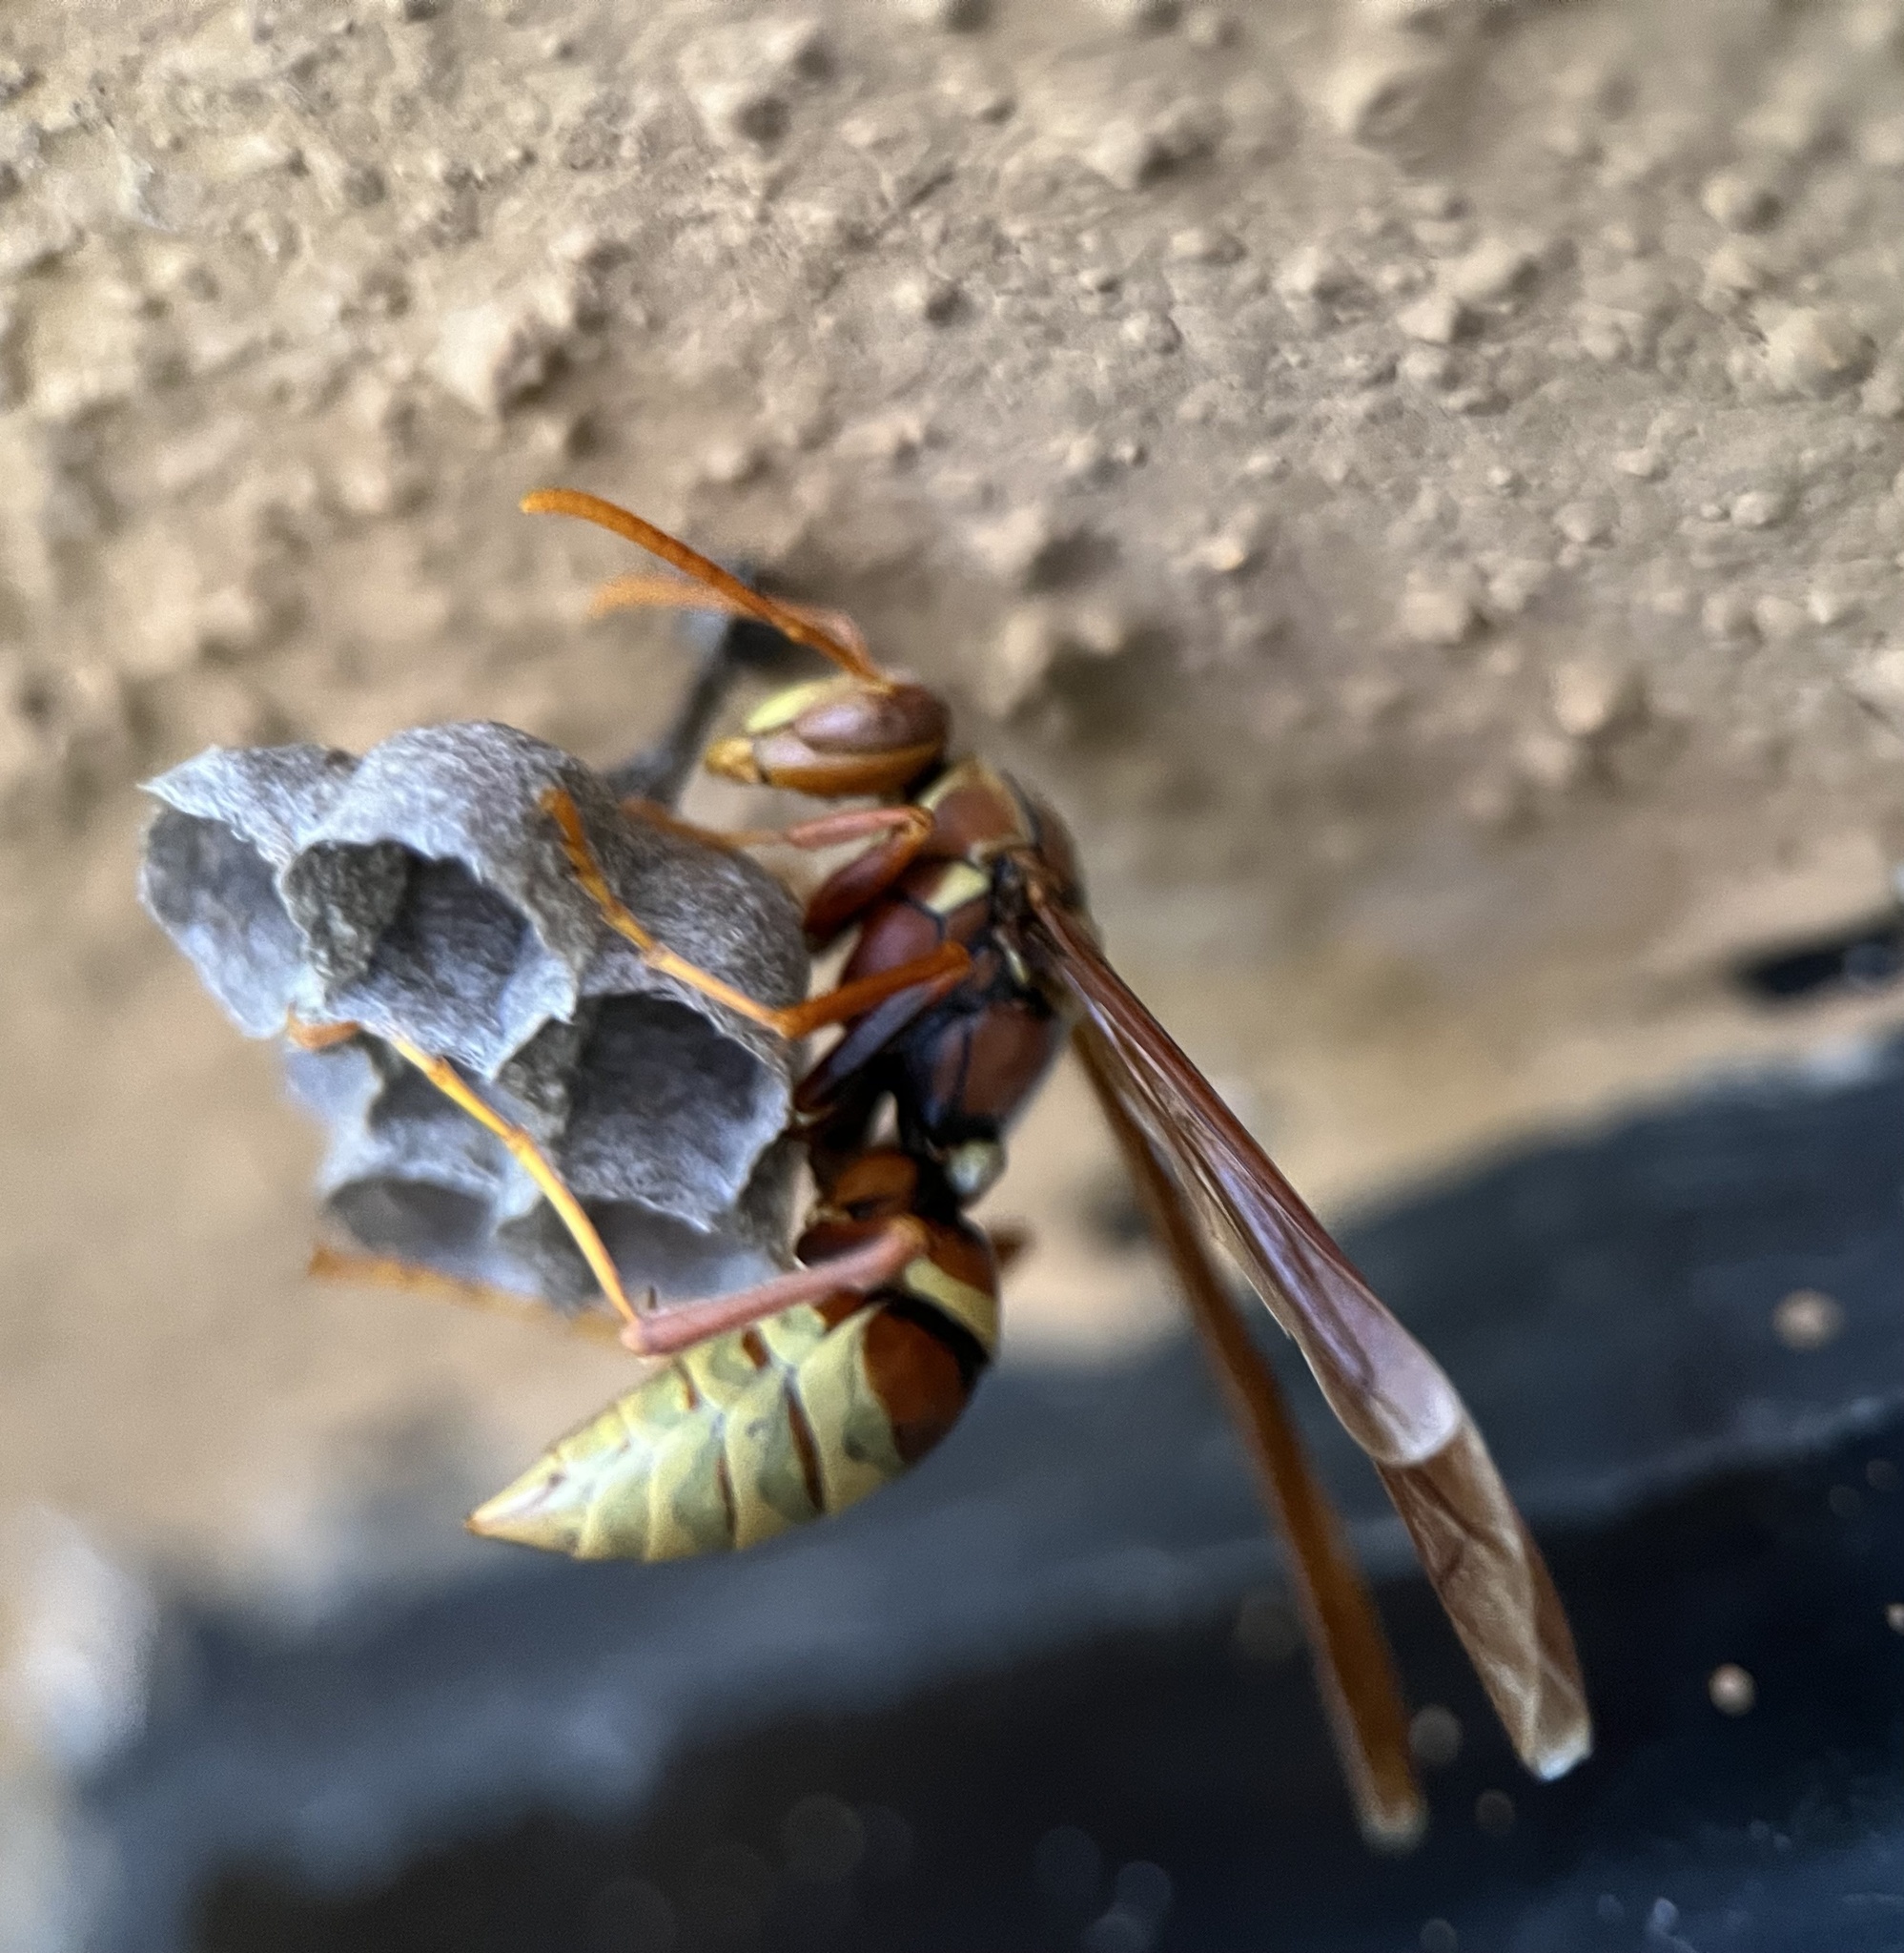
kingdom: Animalia
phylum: Arthropoda
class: Insecta
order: Hymenoptera
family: Eumenidae
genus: Polistes
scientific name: Polistes palmarum
